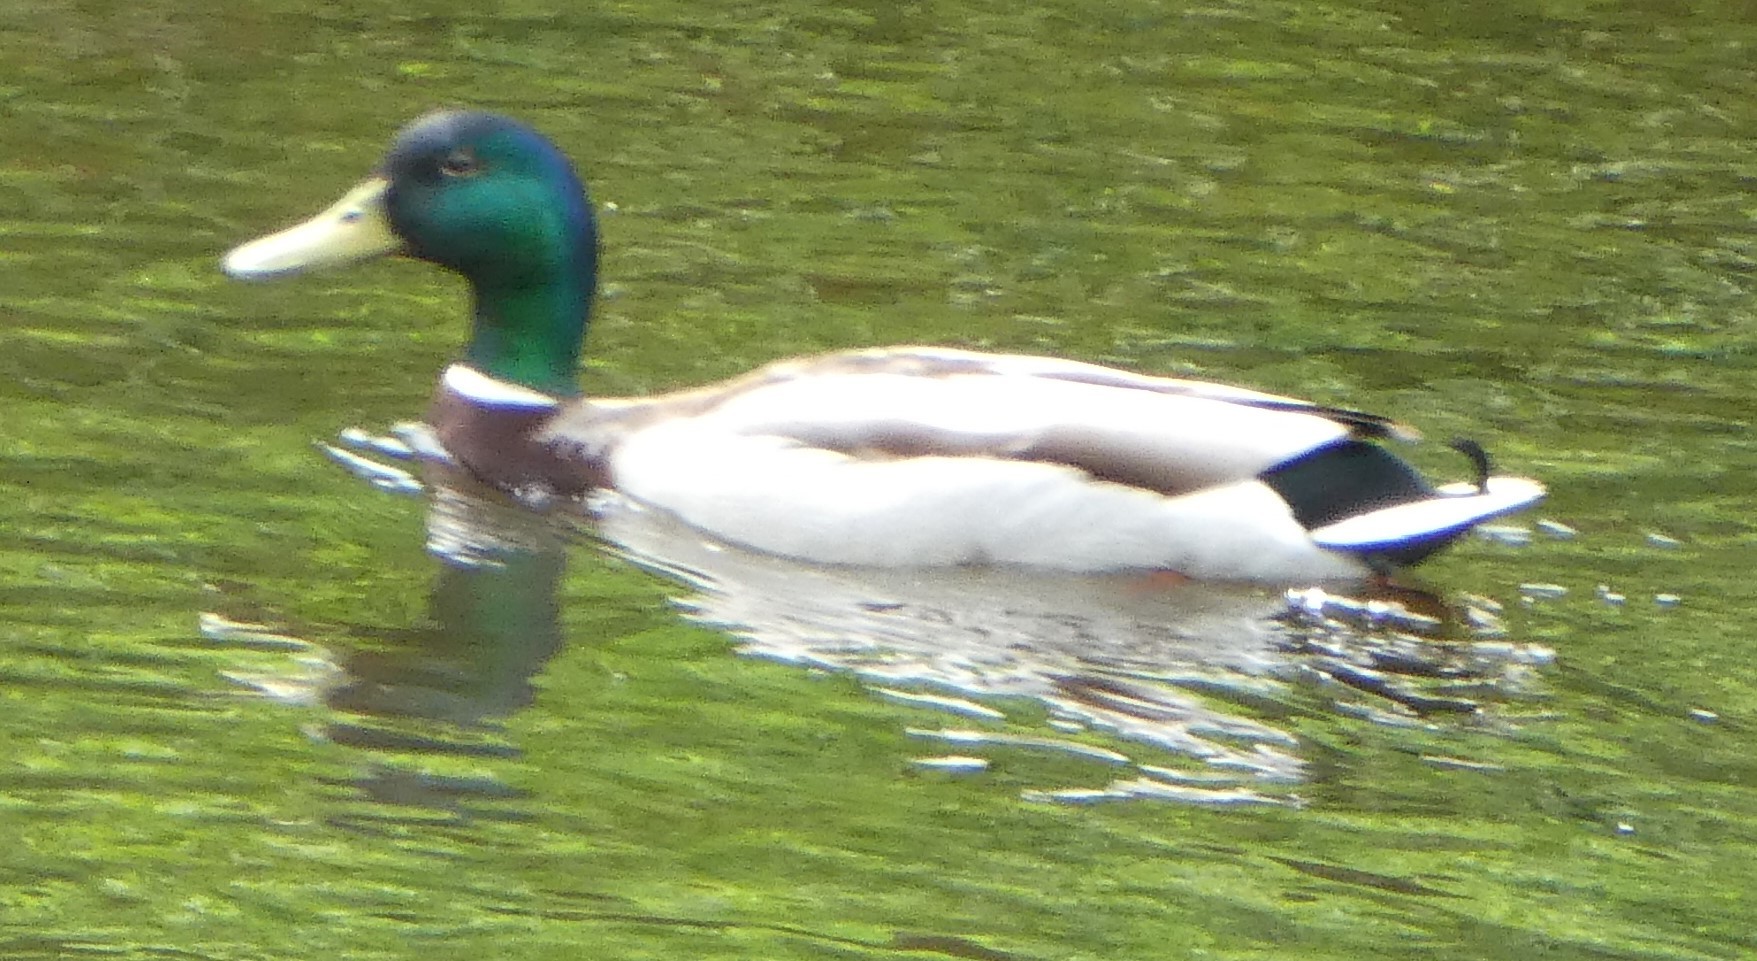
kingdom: Animalia
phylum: Chordata
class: Aves
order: Anseriformes
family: Anatidae
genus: Anas
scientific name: Anas platyrhynchos
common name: Mallard
